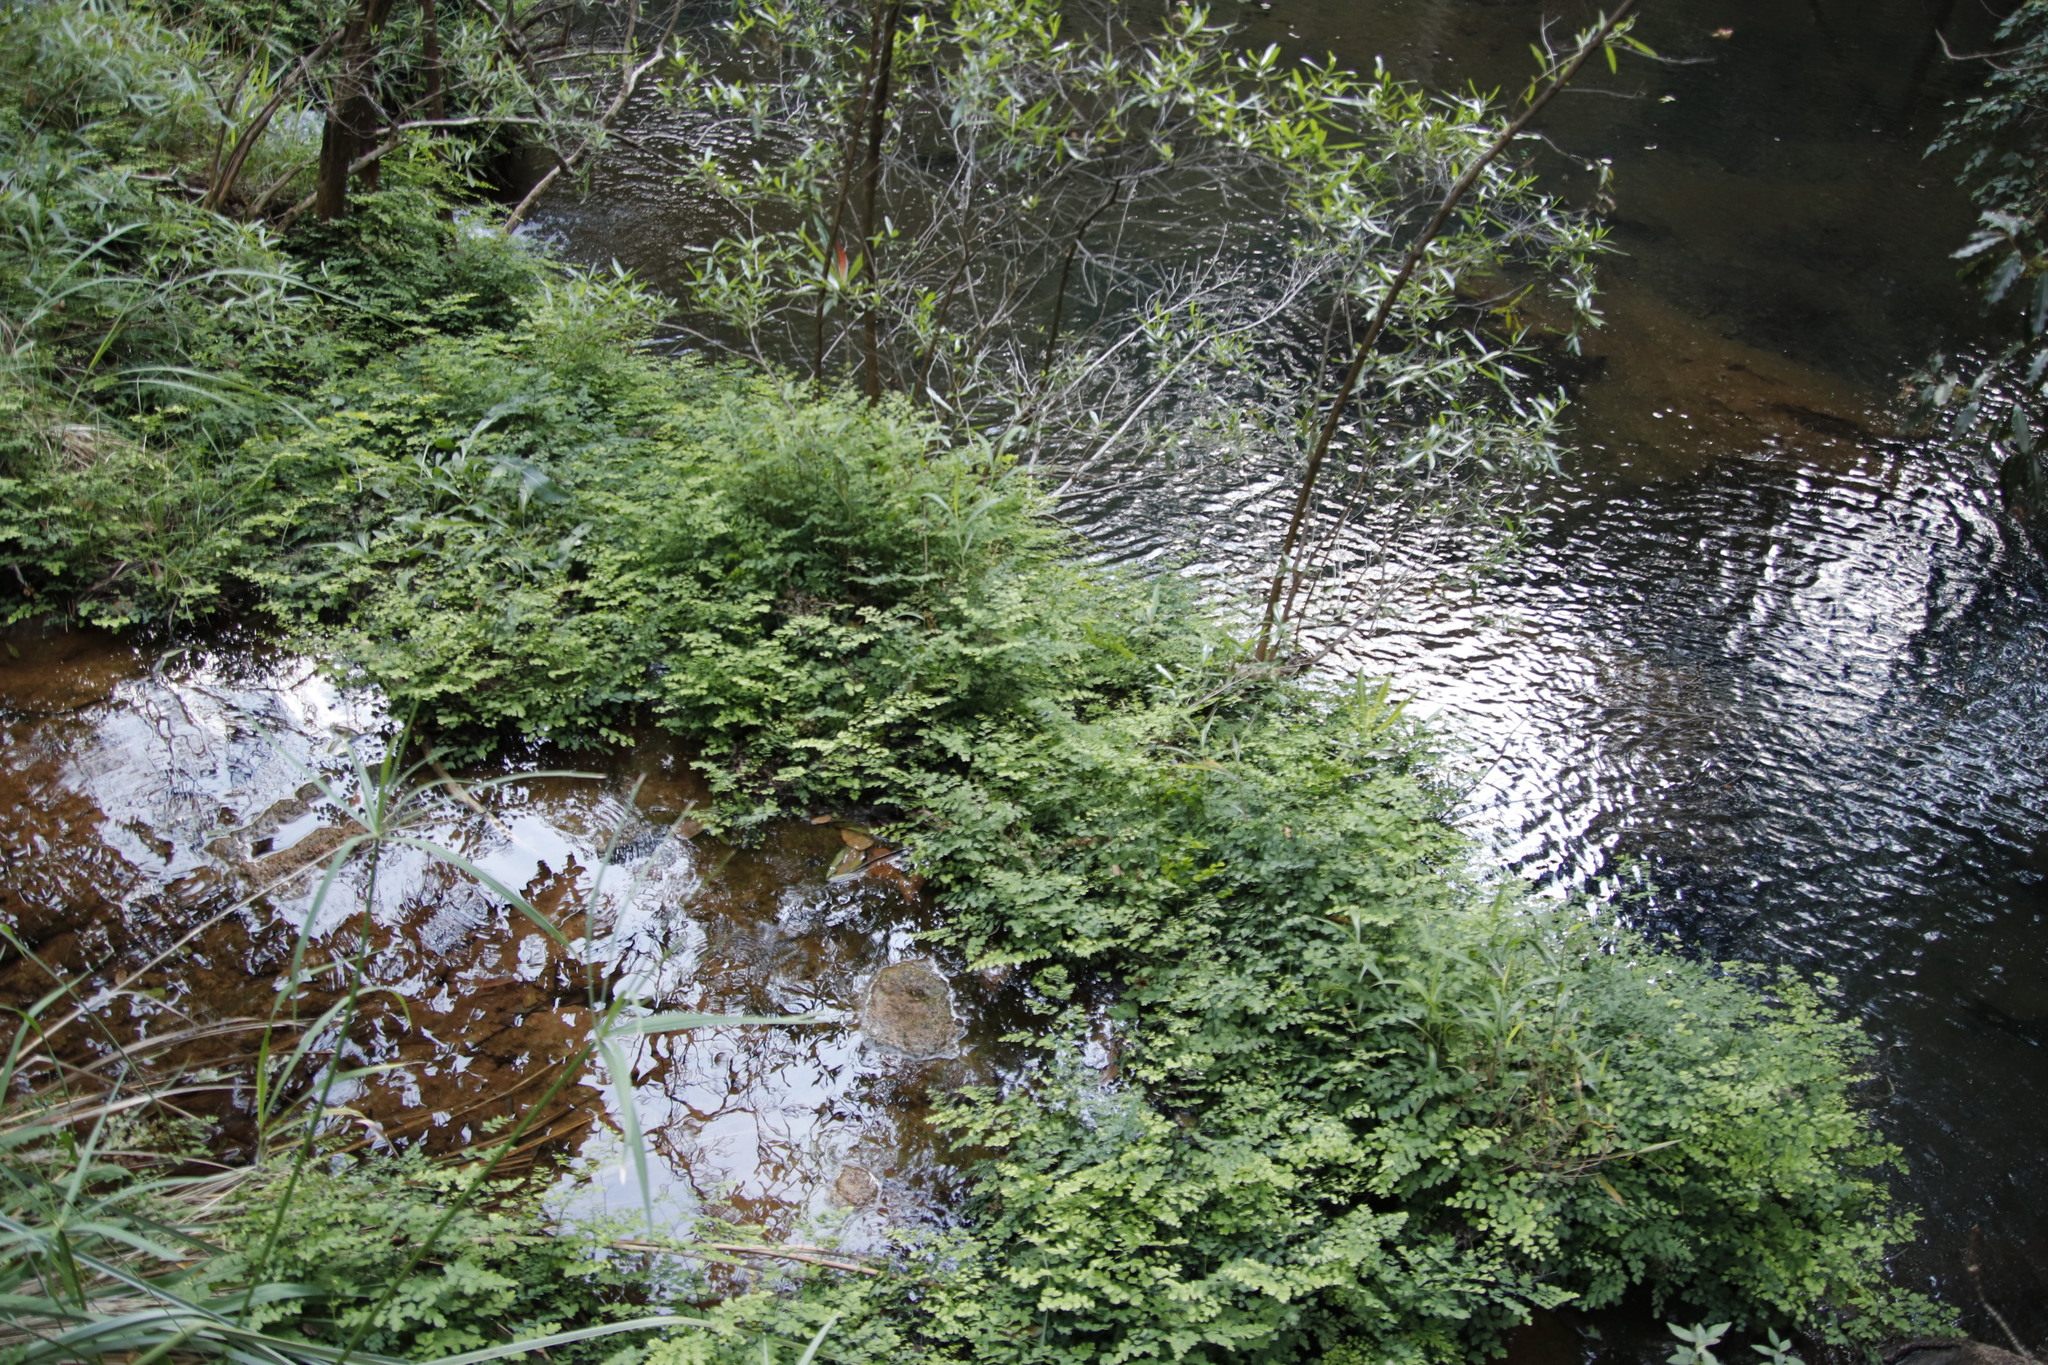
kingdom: Plantae
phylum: Tracheophyta
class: Polypodiopsida
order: Polypodiales
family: Pteridaceae
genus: Adiantum
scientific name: Adiantum capillus-veneris
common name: Maidenhair fern
